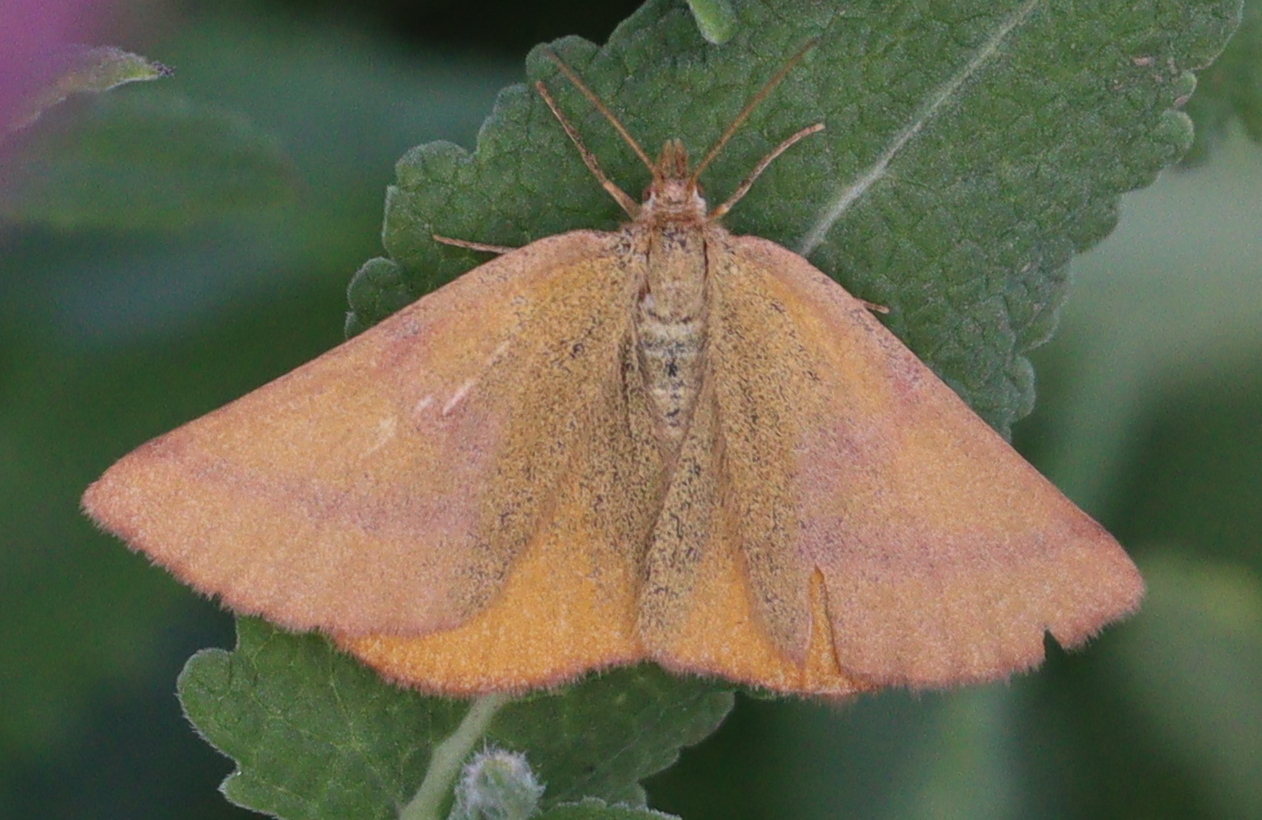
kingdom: Animalia
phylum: Arthropoda
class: Insecta
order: Lepidoptera
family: Geometridae
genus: Lythria
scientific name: Lythria purpuraria
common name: Purple-barred yellow
